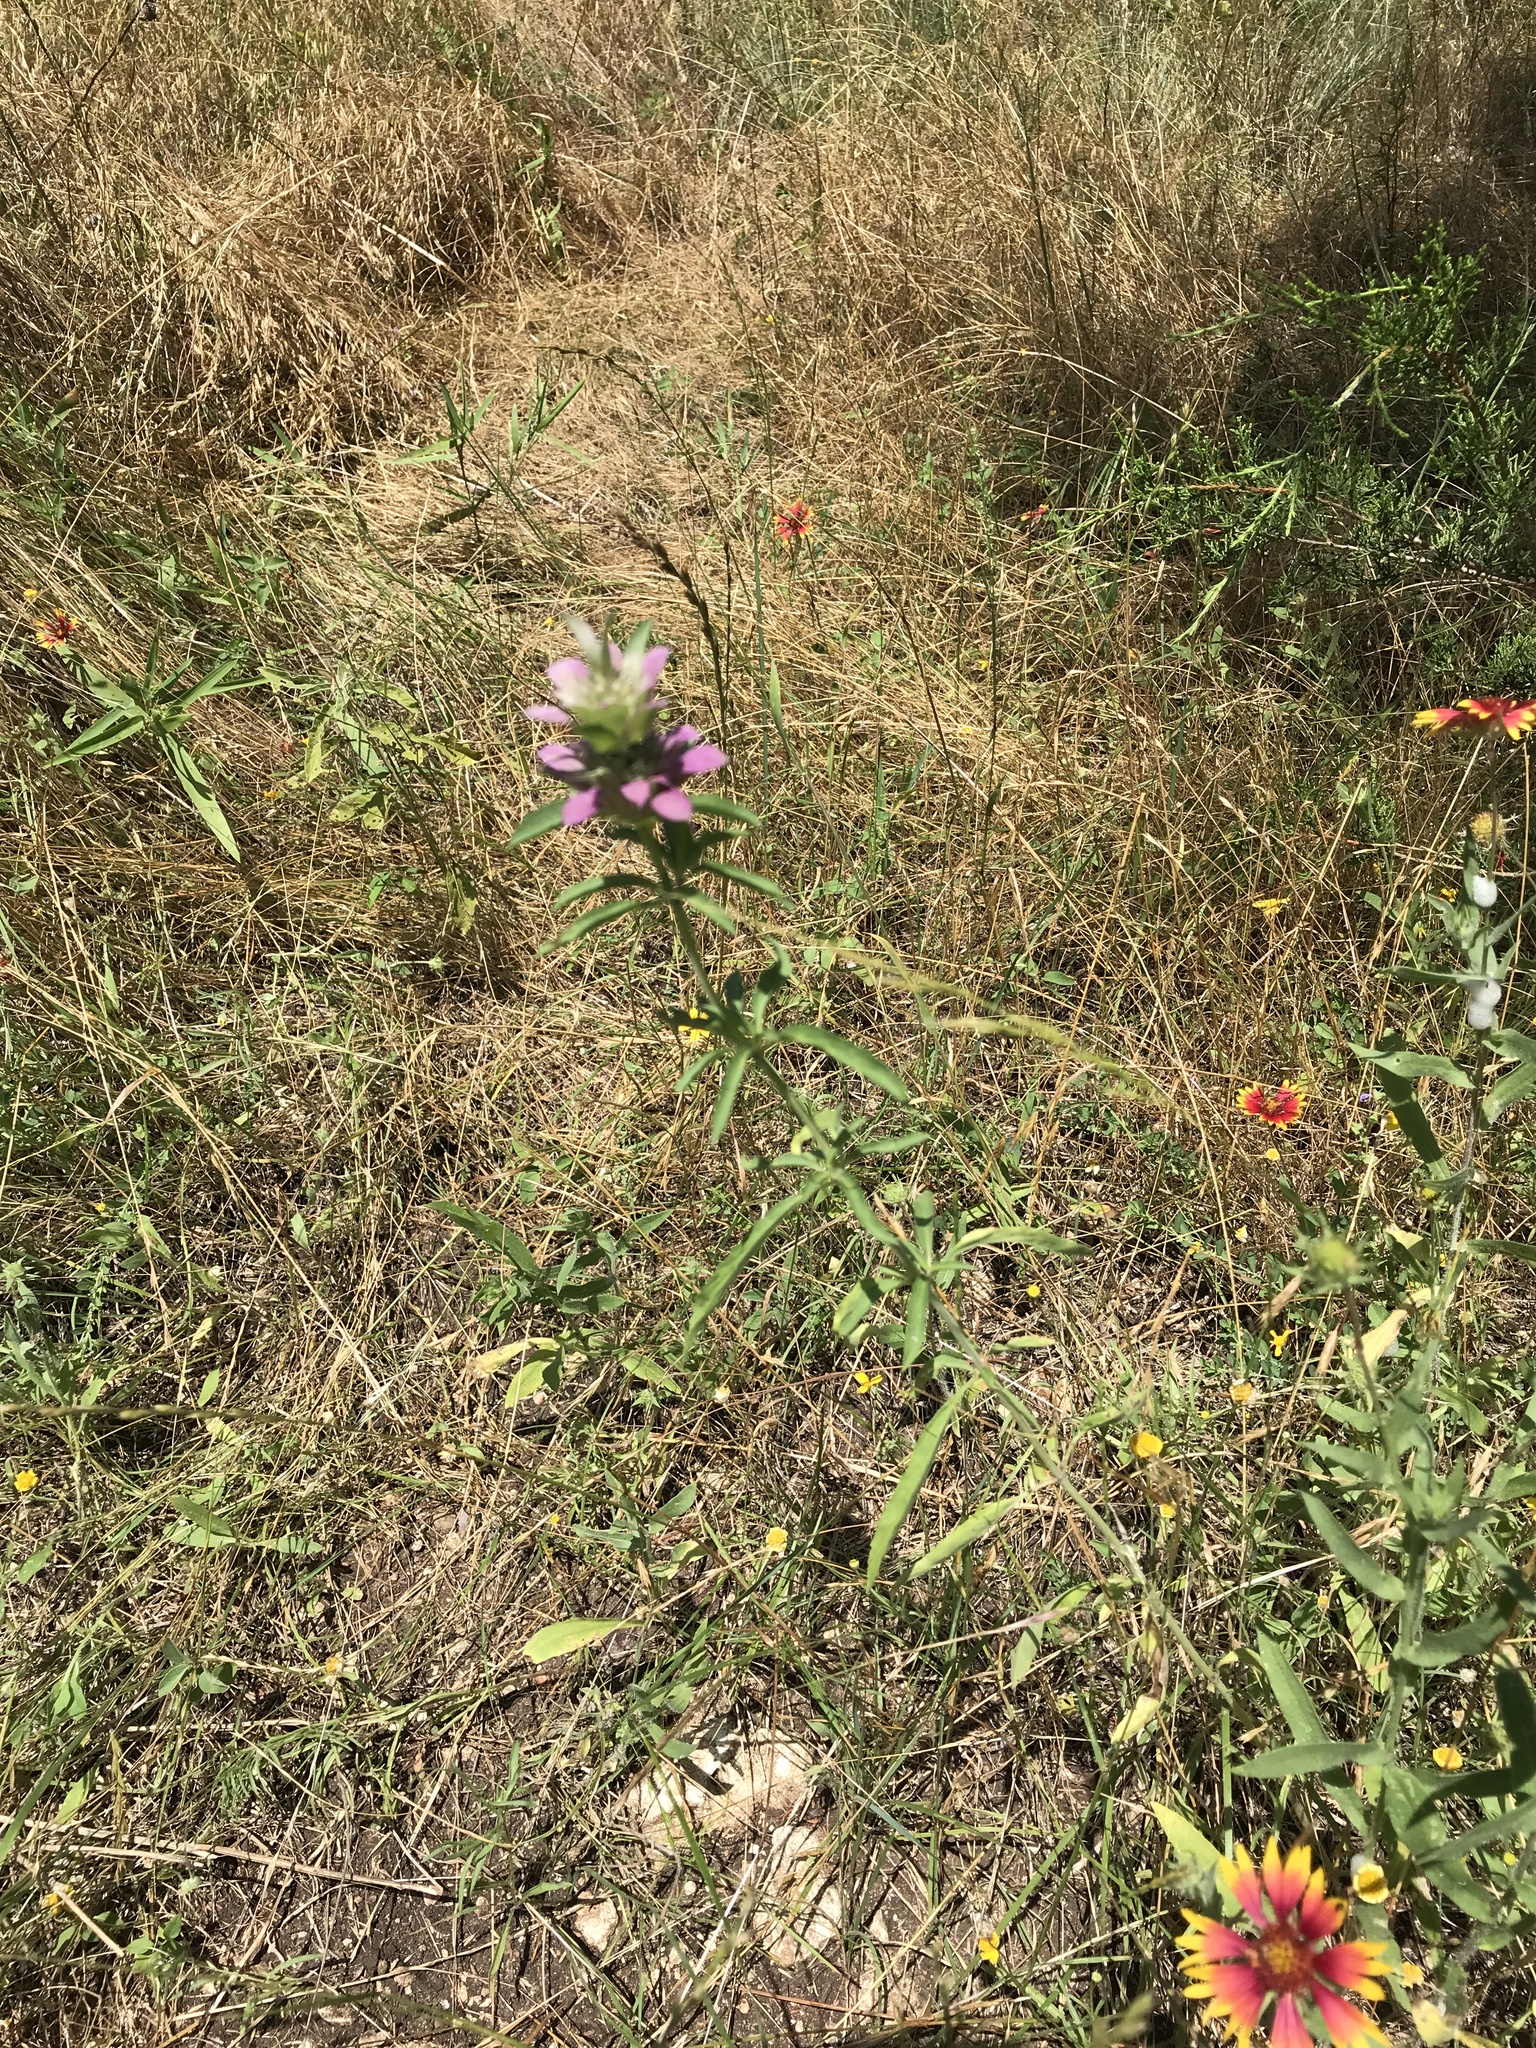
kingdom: Plantae
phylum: Tracheophyta
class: Magnoliopsida
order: Lamiales
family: Lamiaceae
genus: Monarda
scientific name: Monarda citriodora
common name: Lemon beebalm
